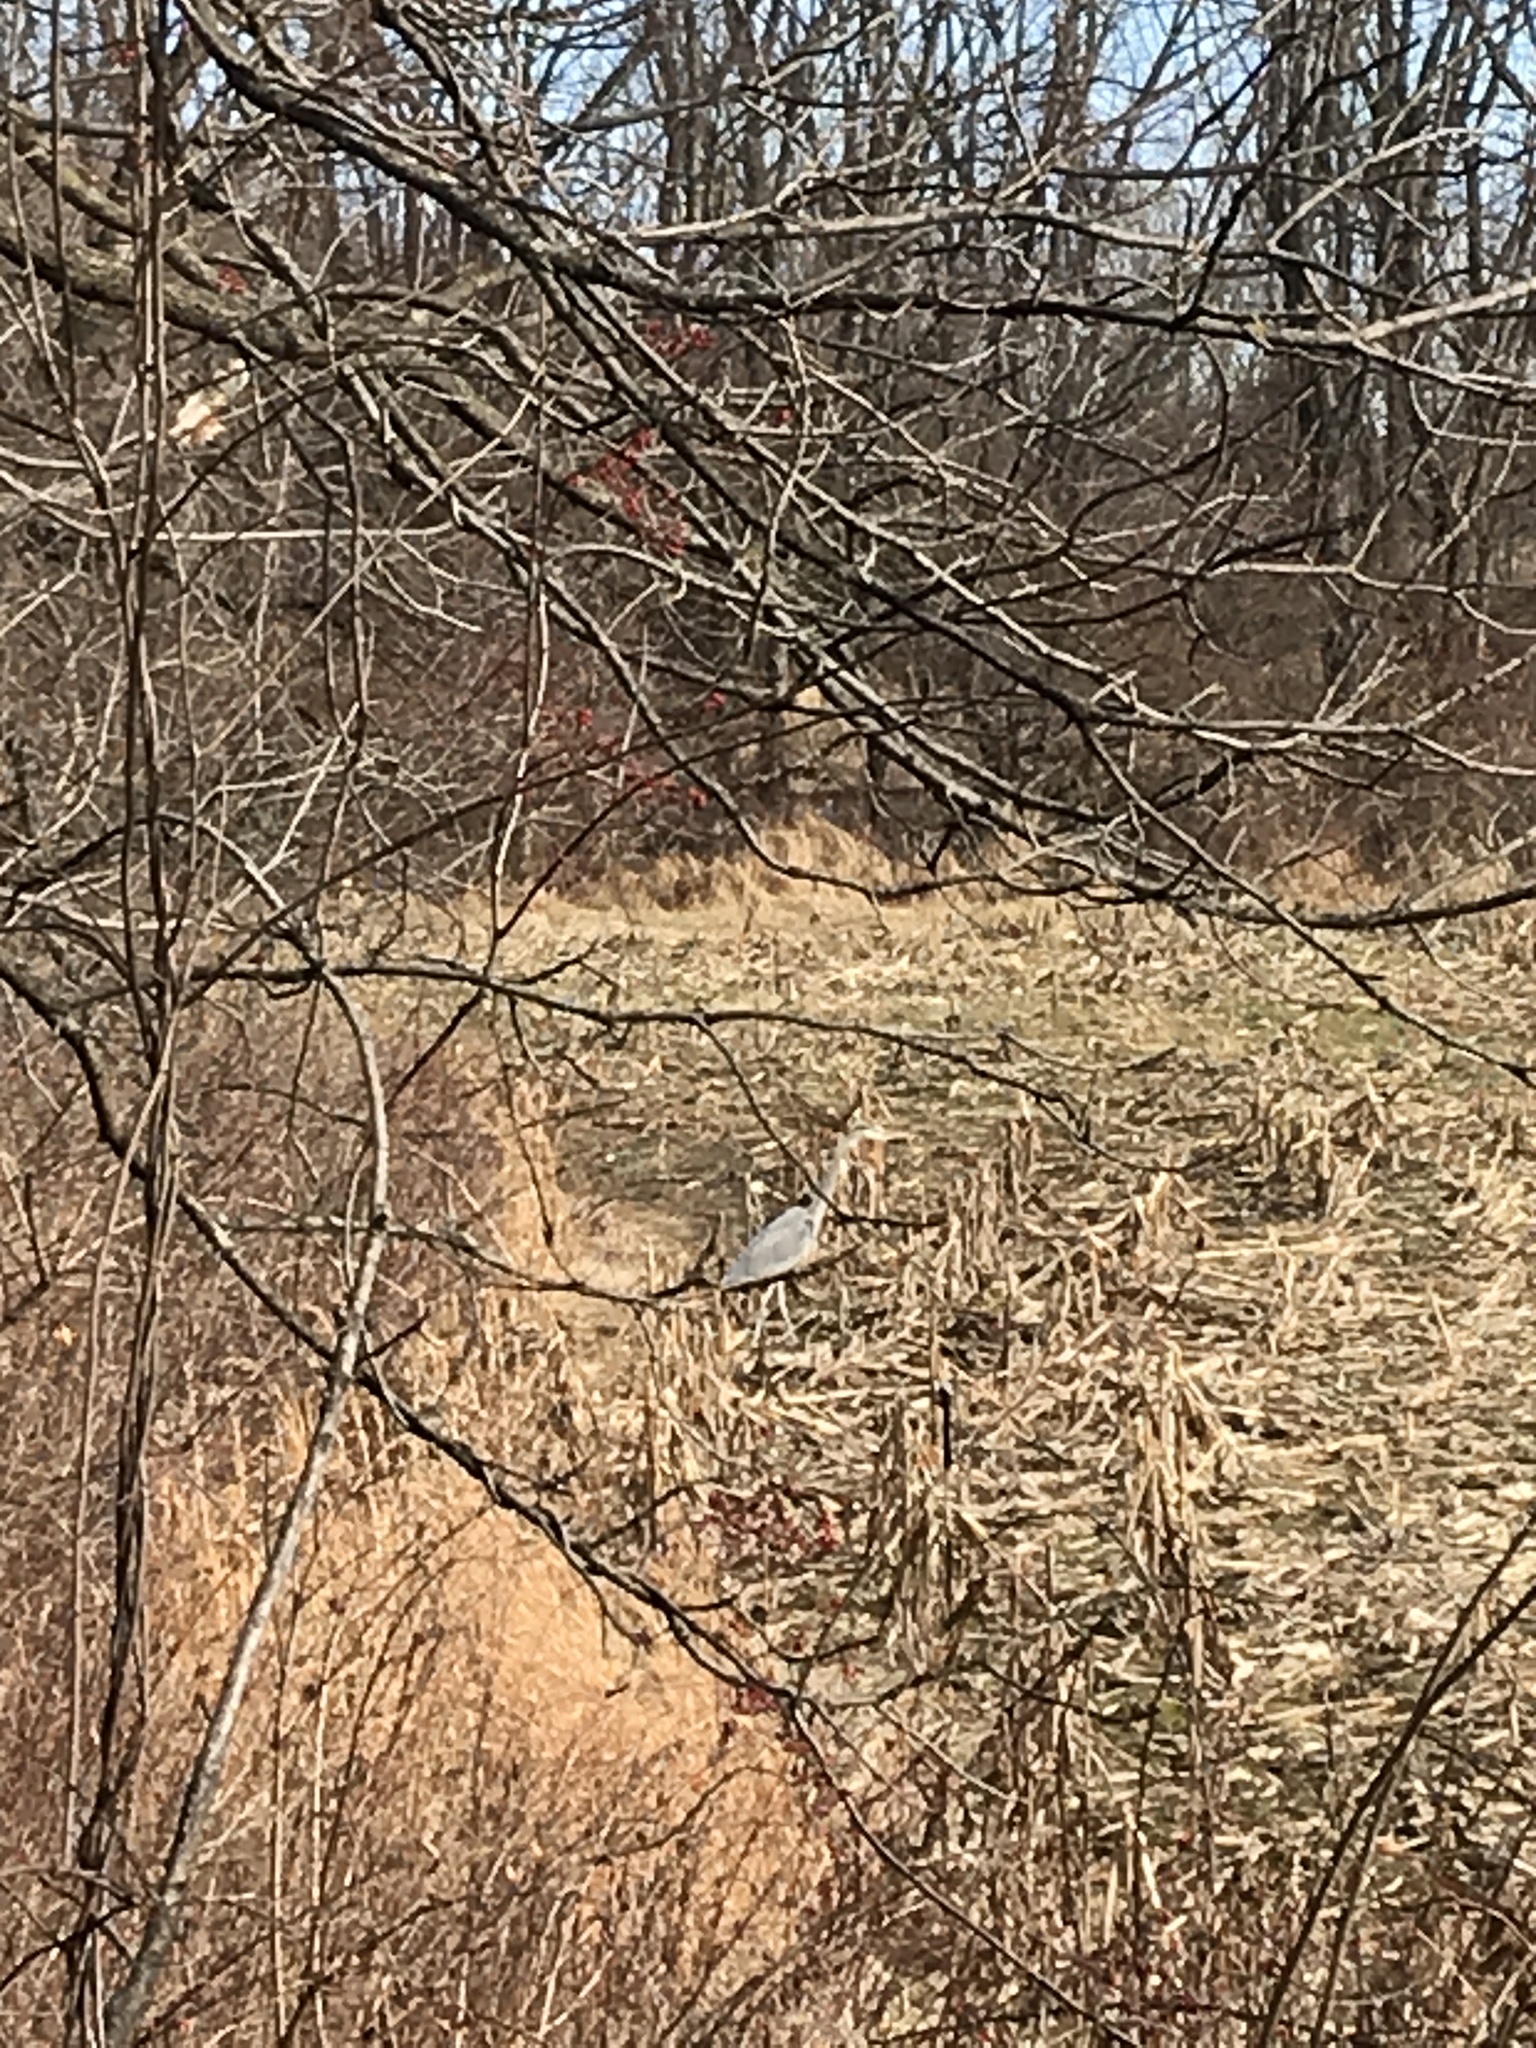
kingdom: Animalia
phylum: Chordata
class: Aves
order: Pelecaniformes
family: Ardeidae
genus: Ardea
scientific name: Ardea herodias
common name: Great blue heron
